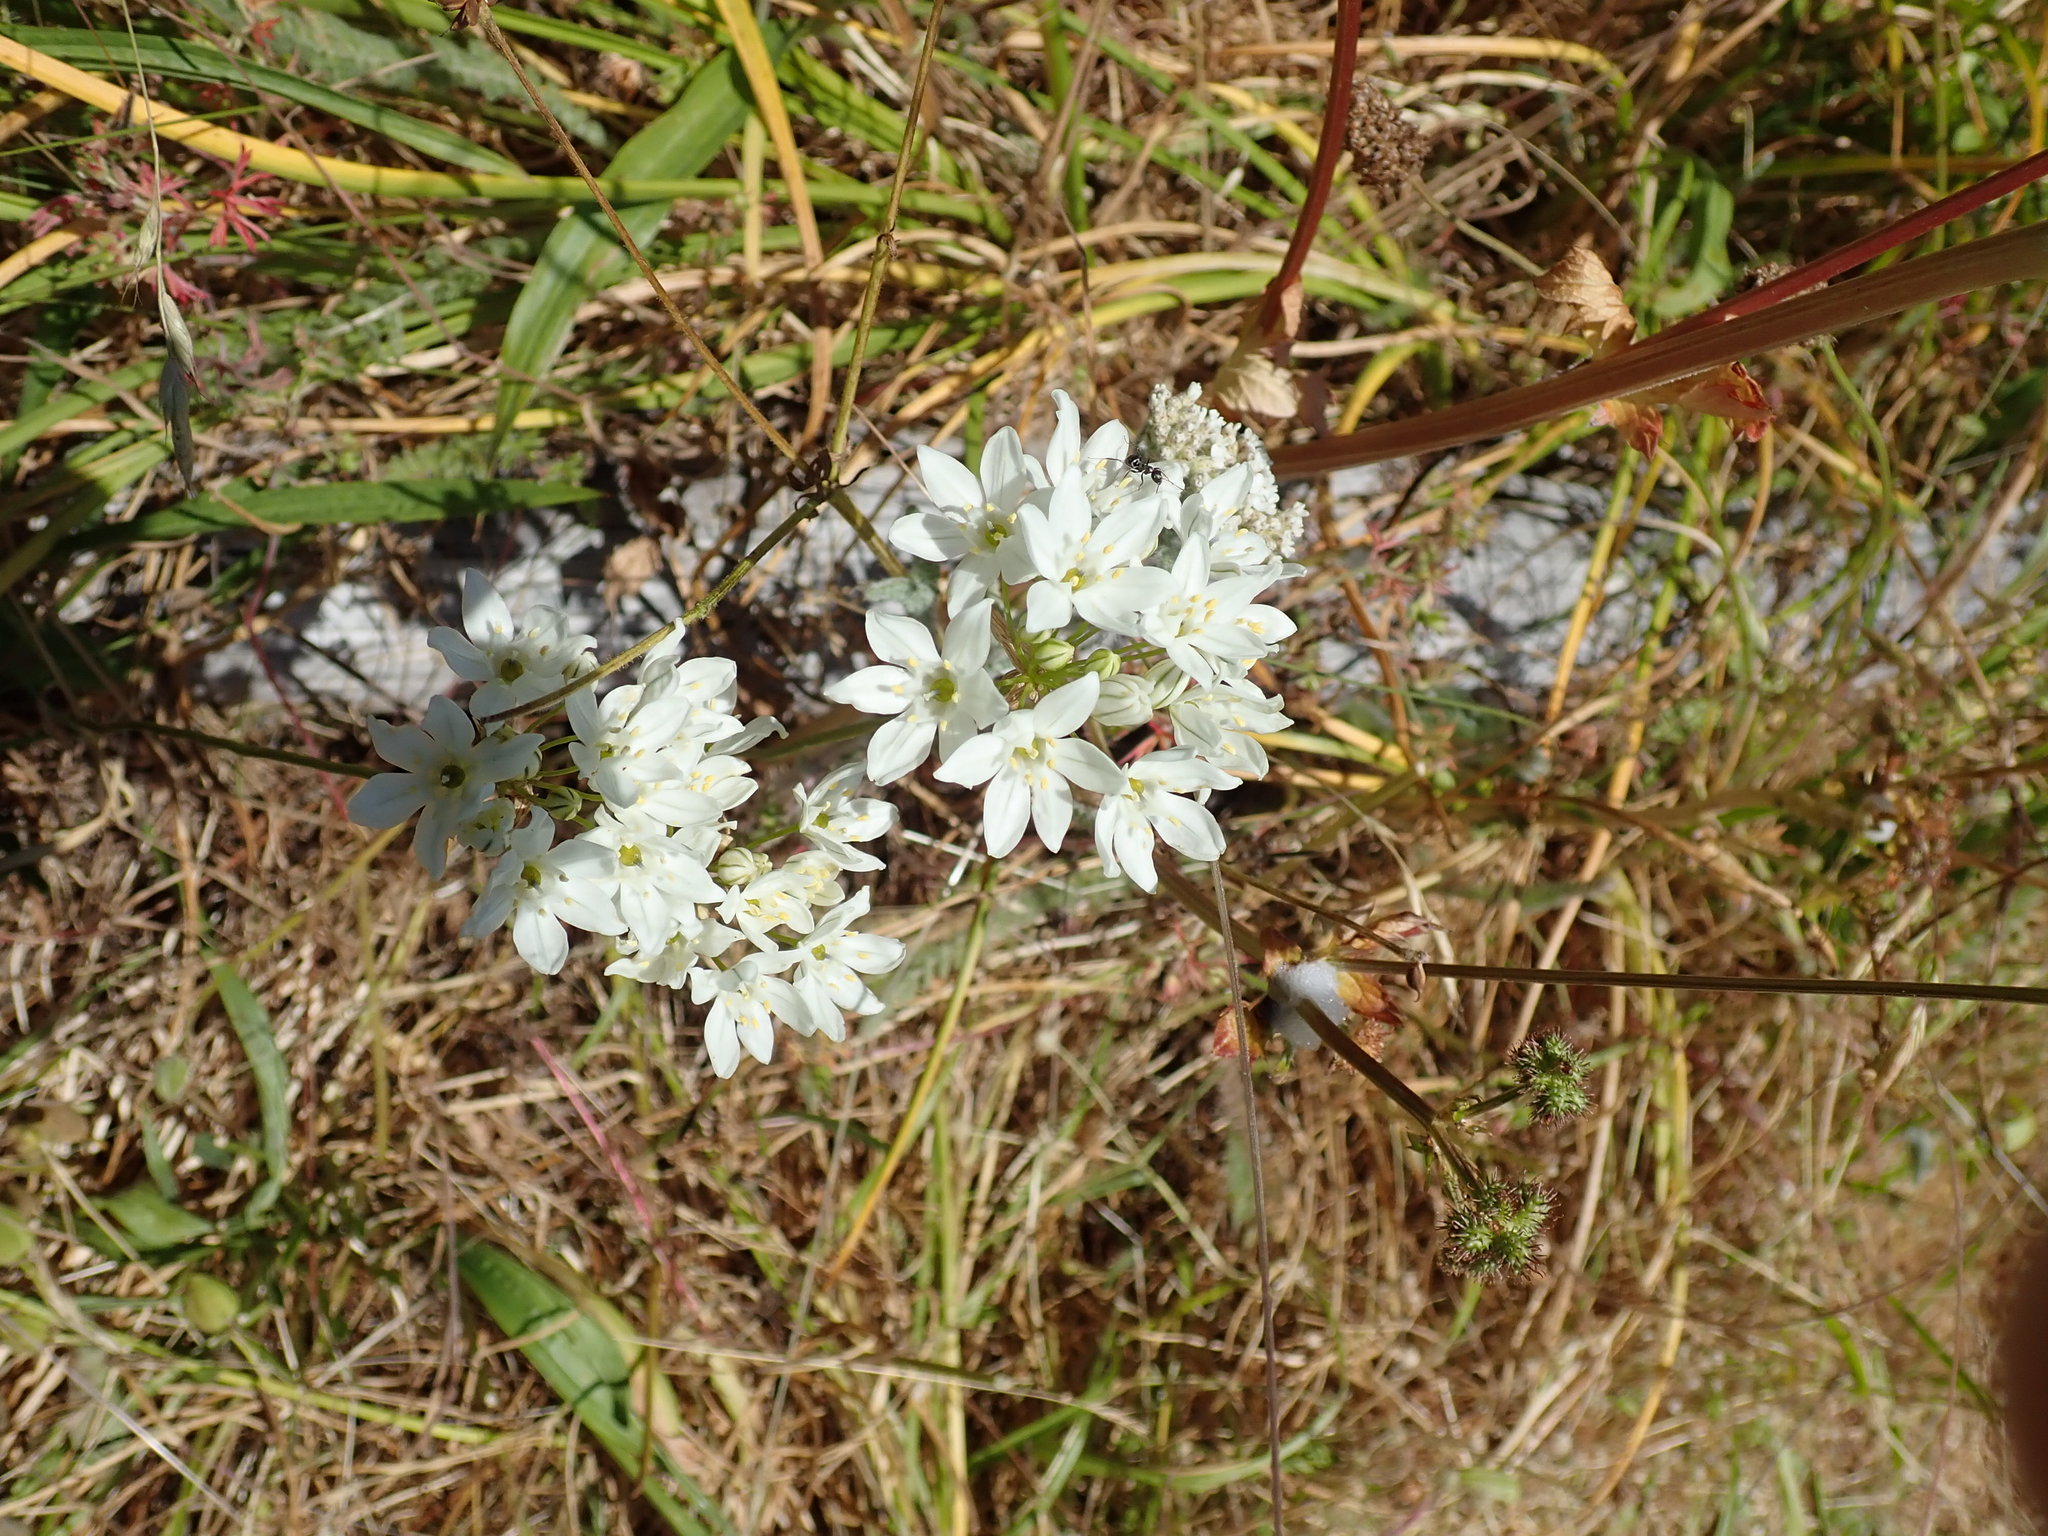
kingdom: Plantae
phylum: Tracheophyta
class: Liliopsida
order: Asparagales
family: Asparagaceae
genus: Triteleia
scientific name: Triteleia hyacinthina
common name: White brodiaea
